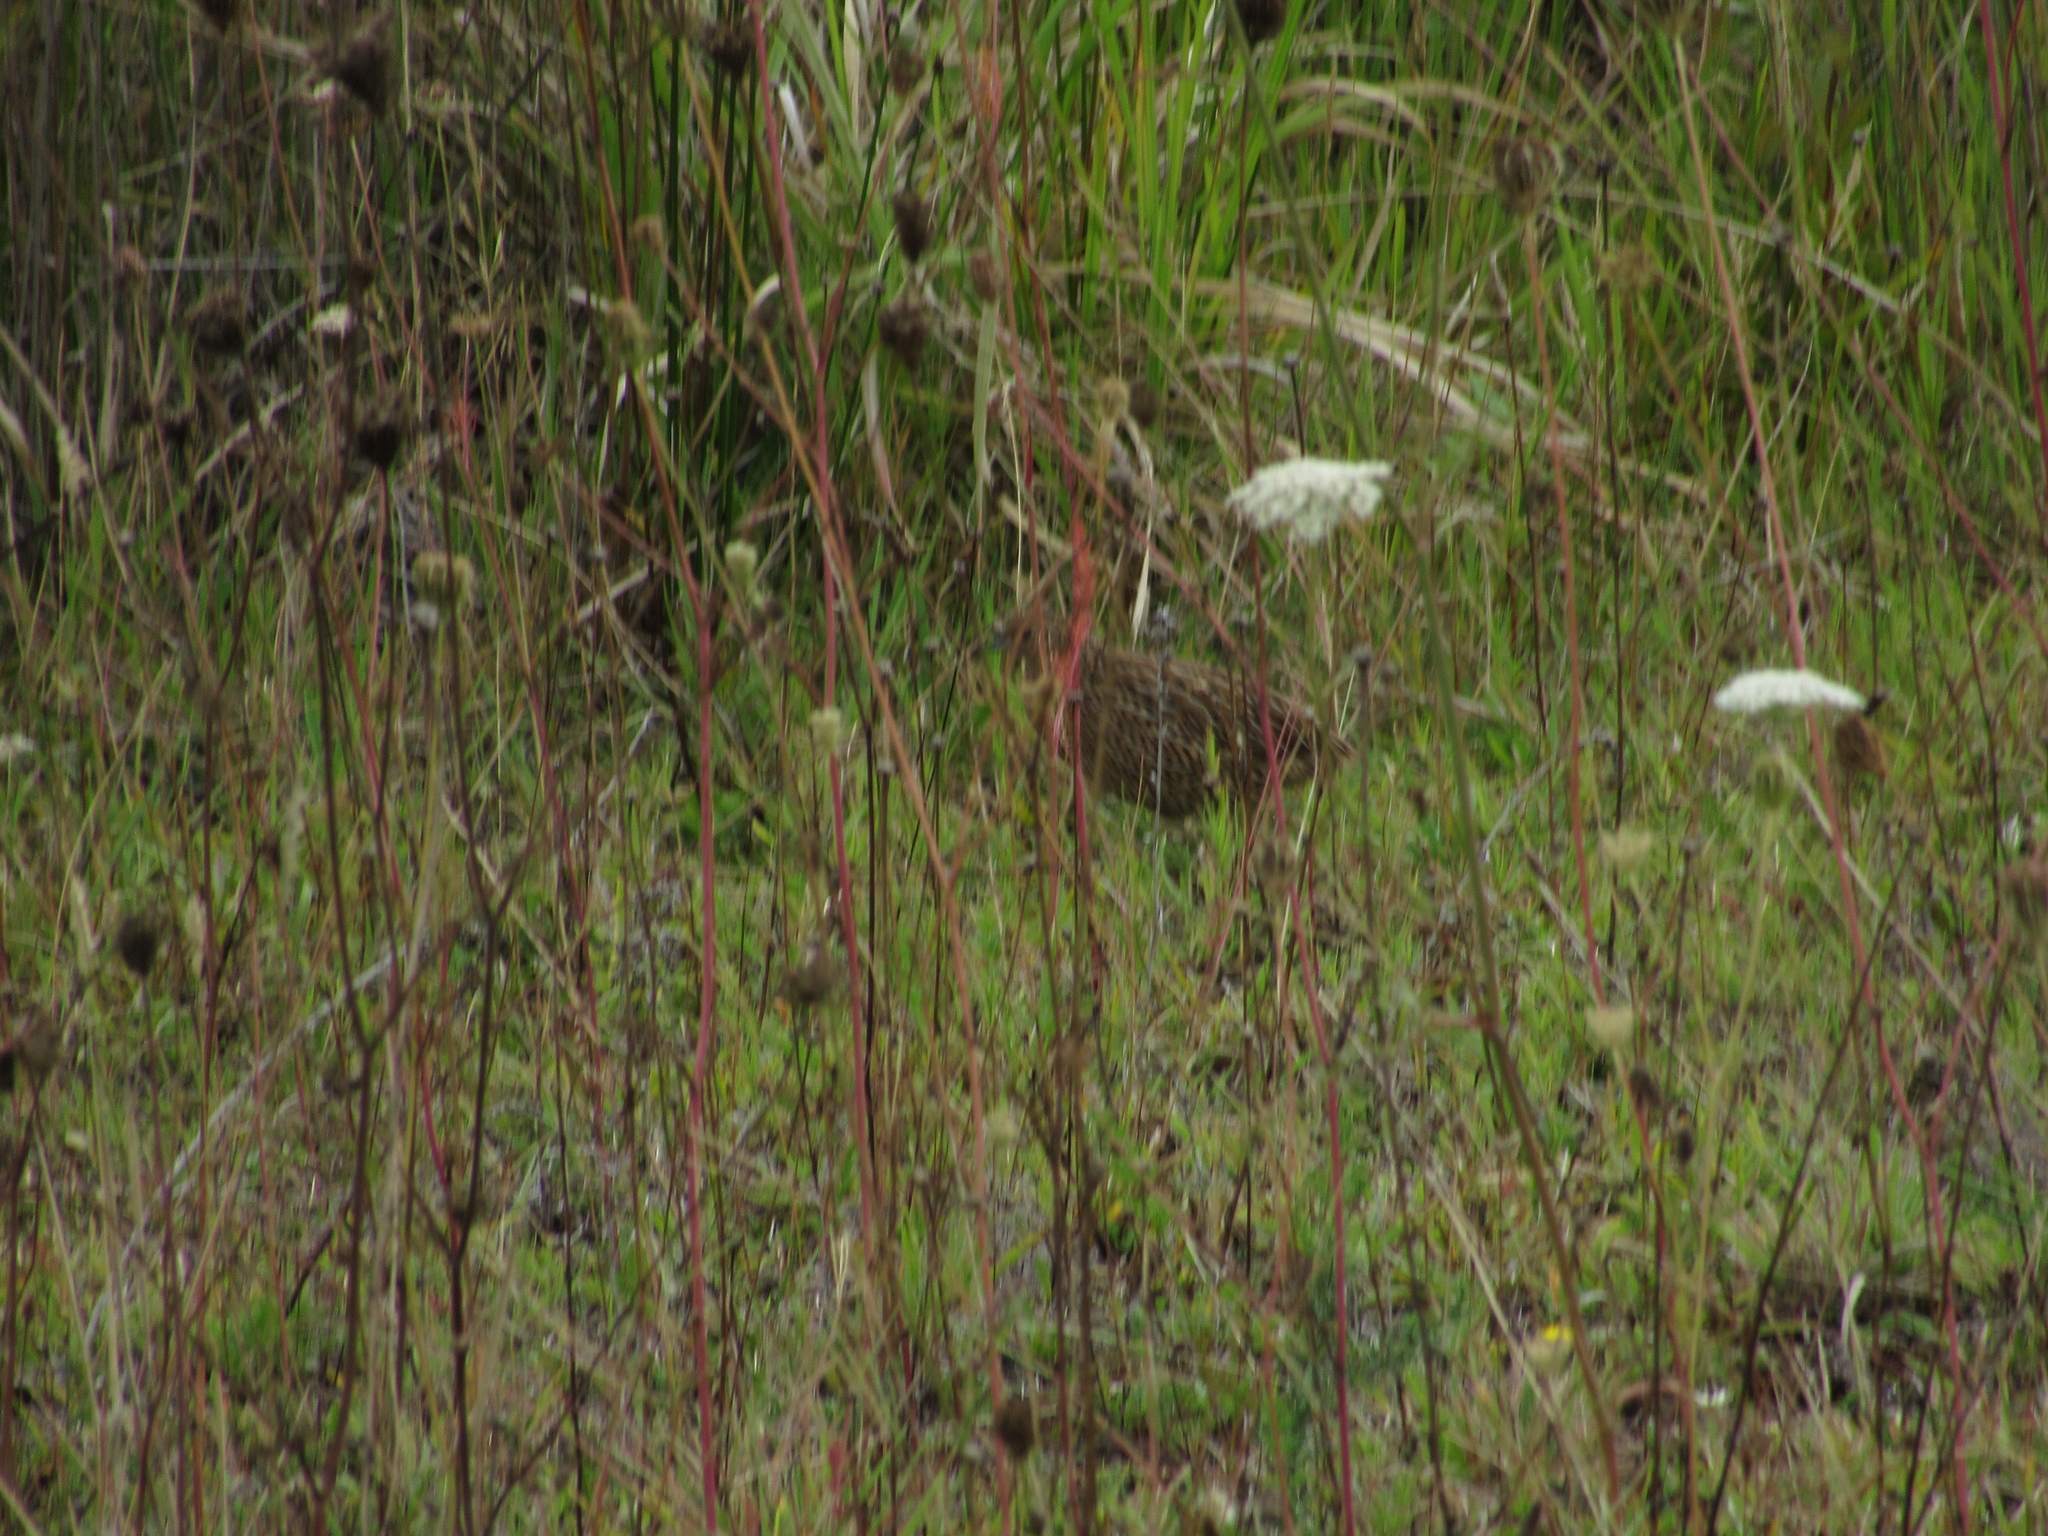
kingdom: Animalia
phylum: Chordata
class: Aves
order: Galliformes
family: Phasianidae
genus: Synoicus
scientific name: Synoicus ypsilophorus
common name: Brown quail
